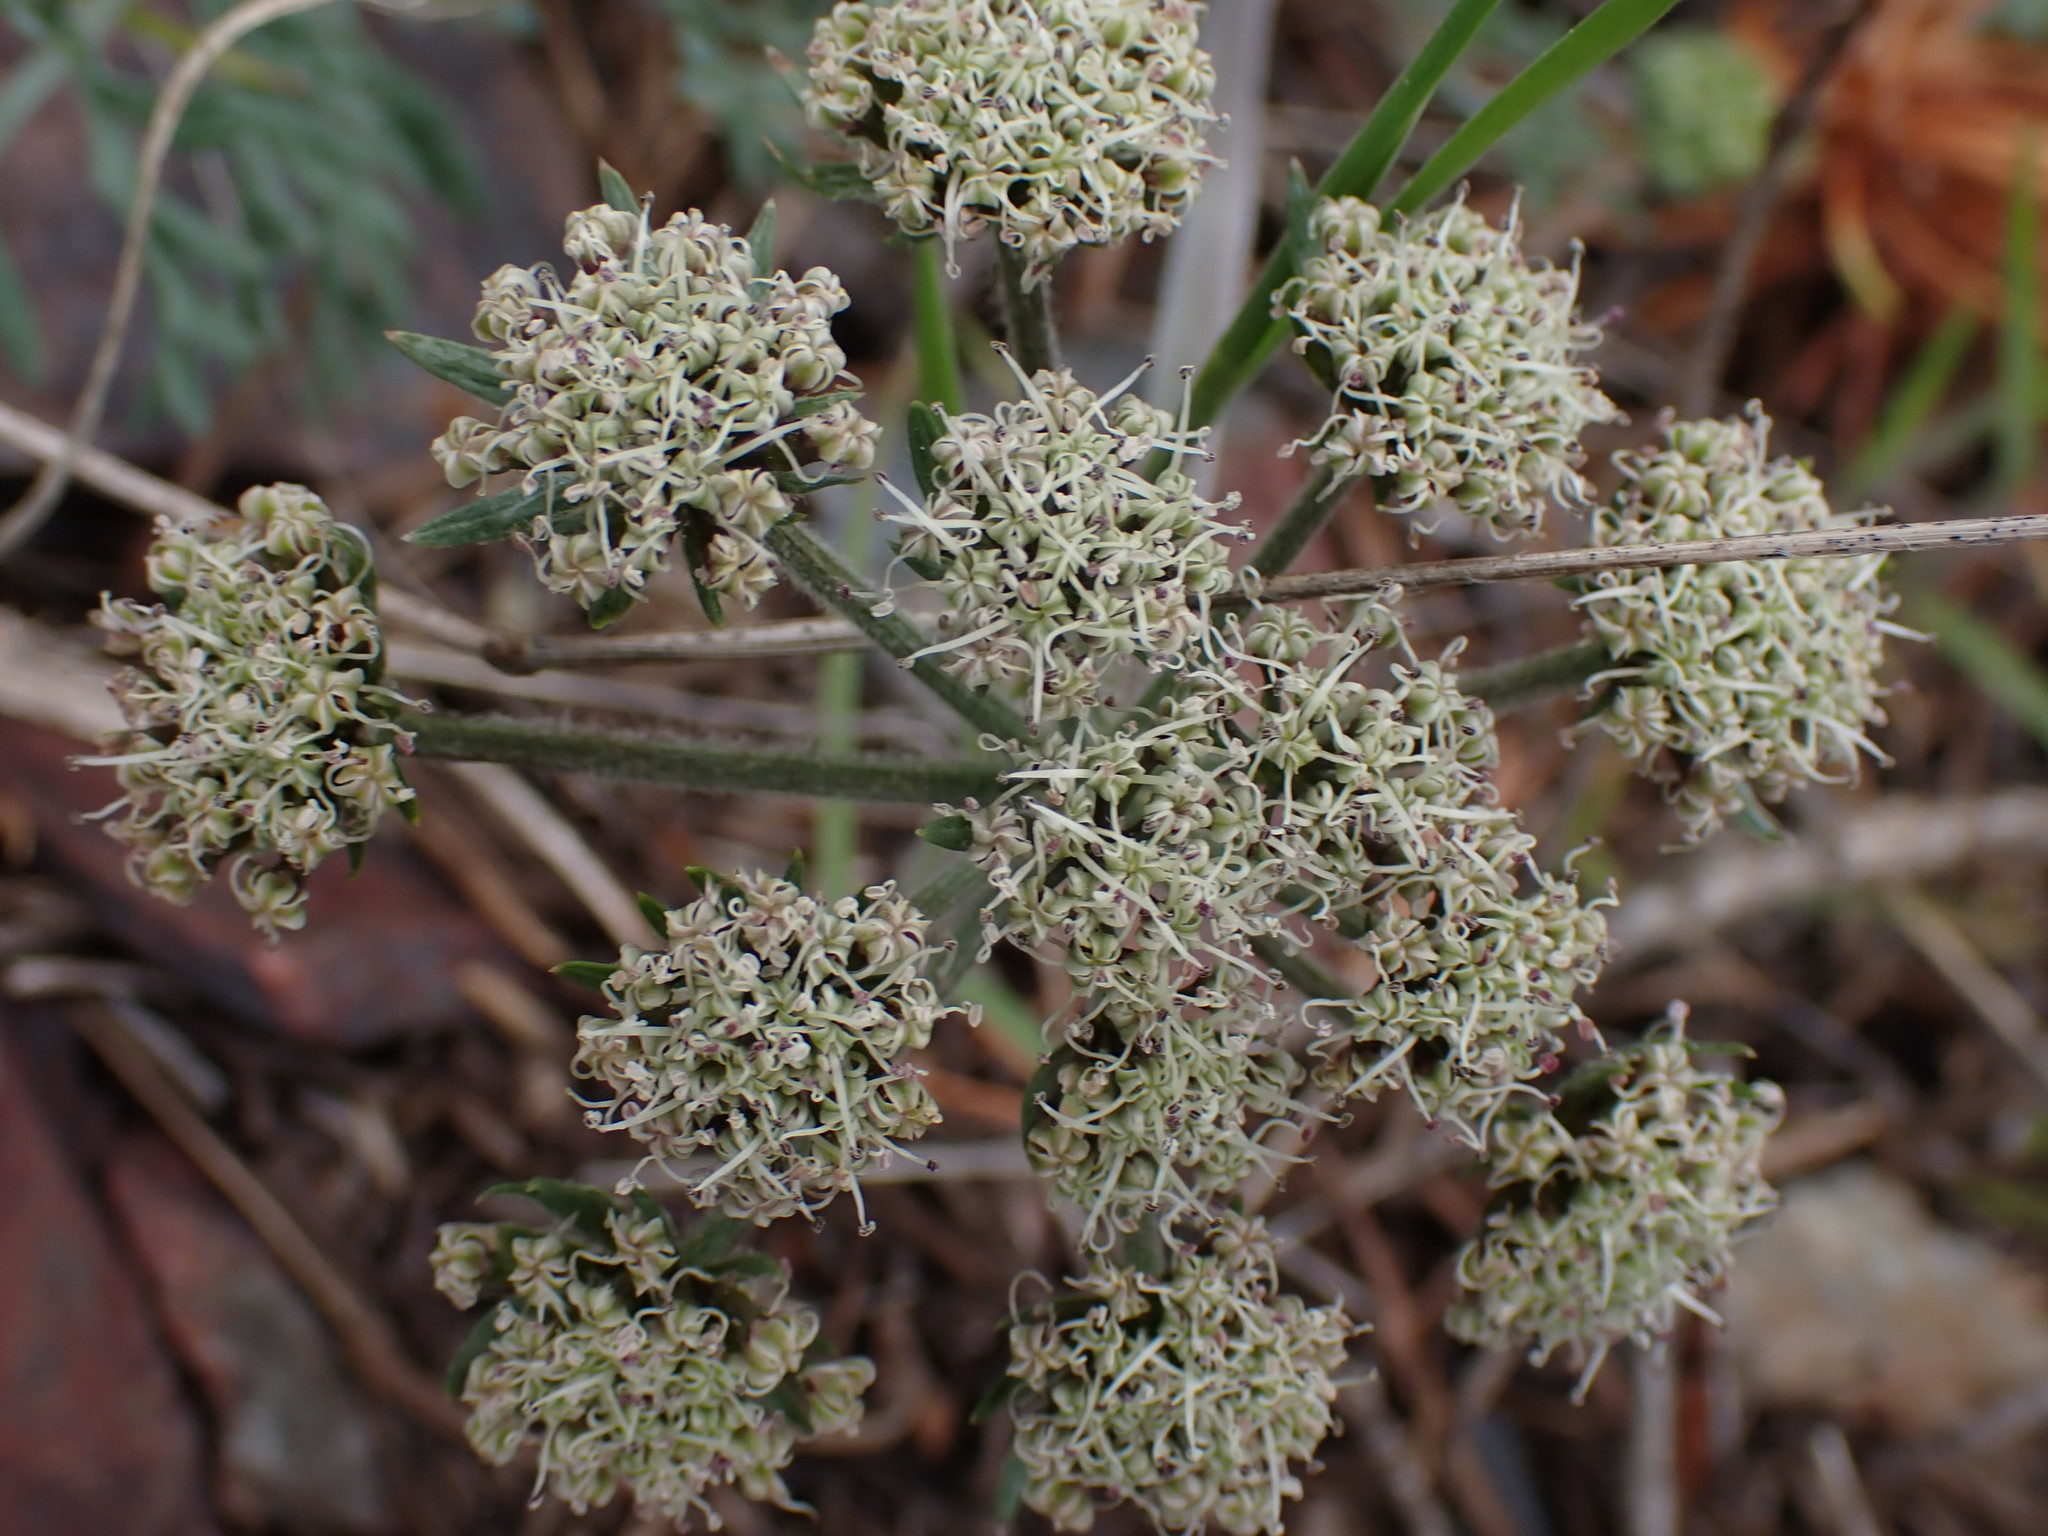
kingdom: Plantae
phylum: Tracheophyta
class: Magnoliopsida
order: Apiales
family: Apiaceae
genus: Lomatium
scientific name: Lomatium macrocarpum
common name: Big-seed biscuitroot
